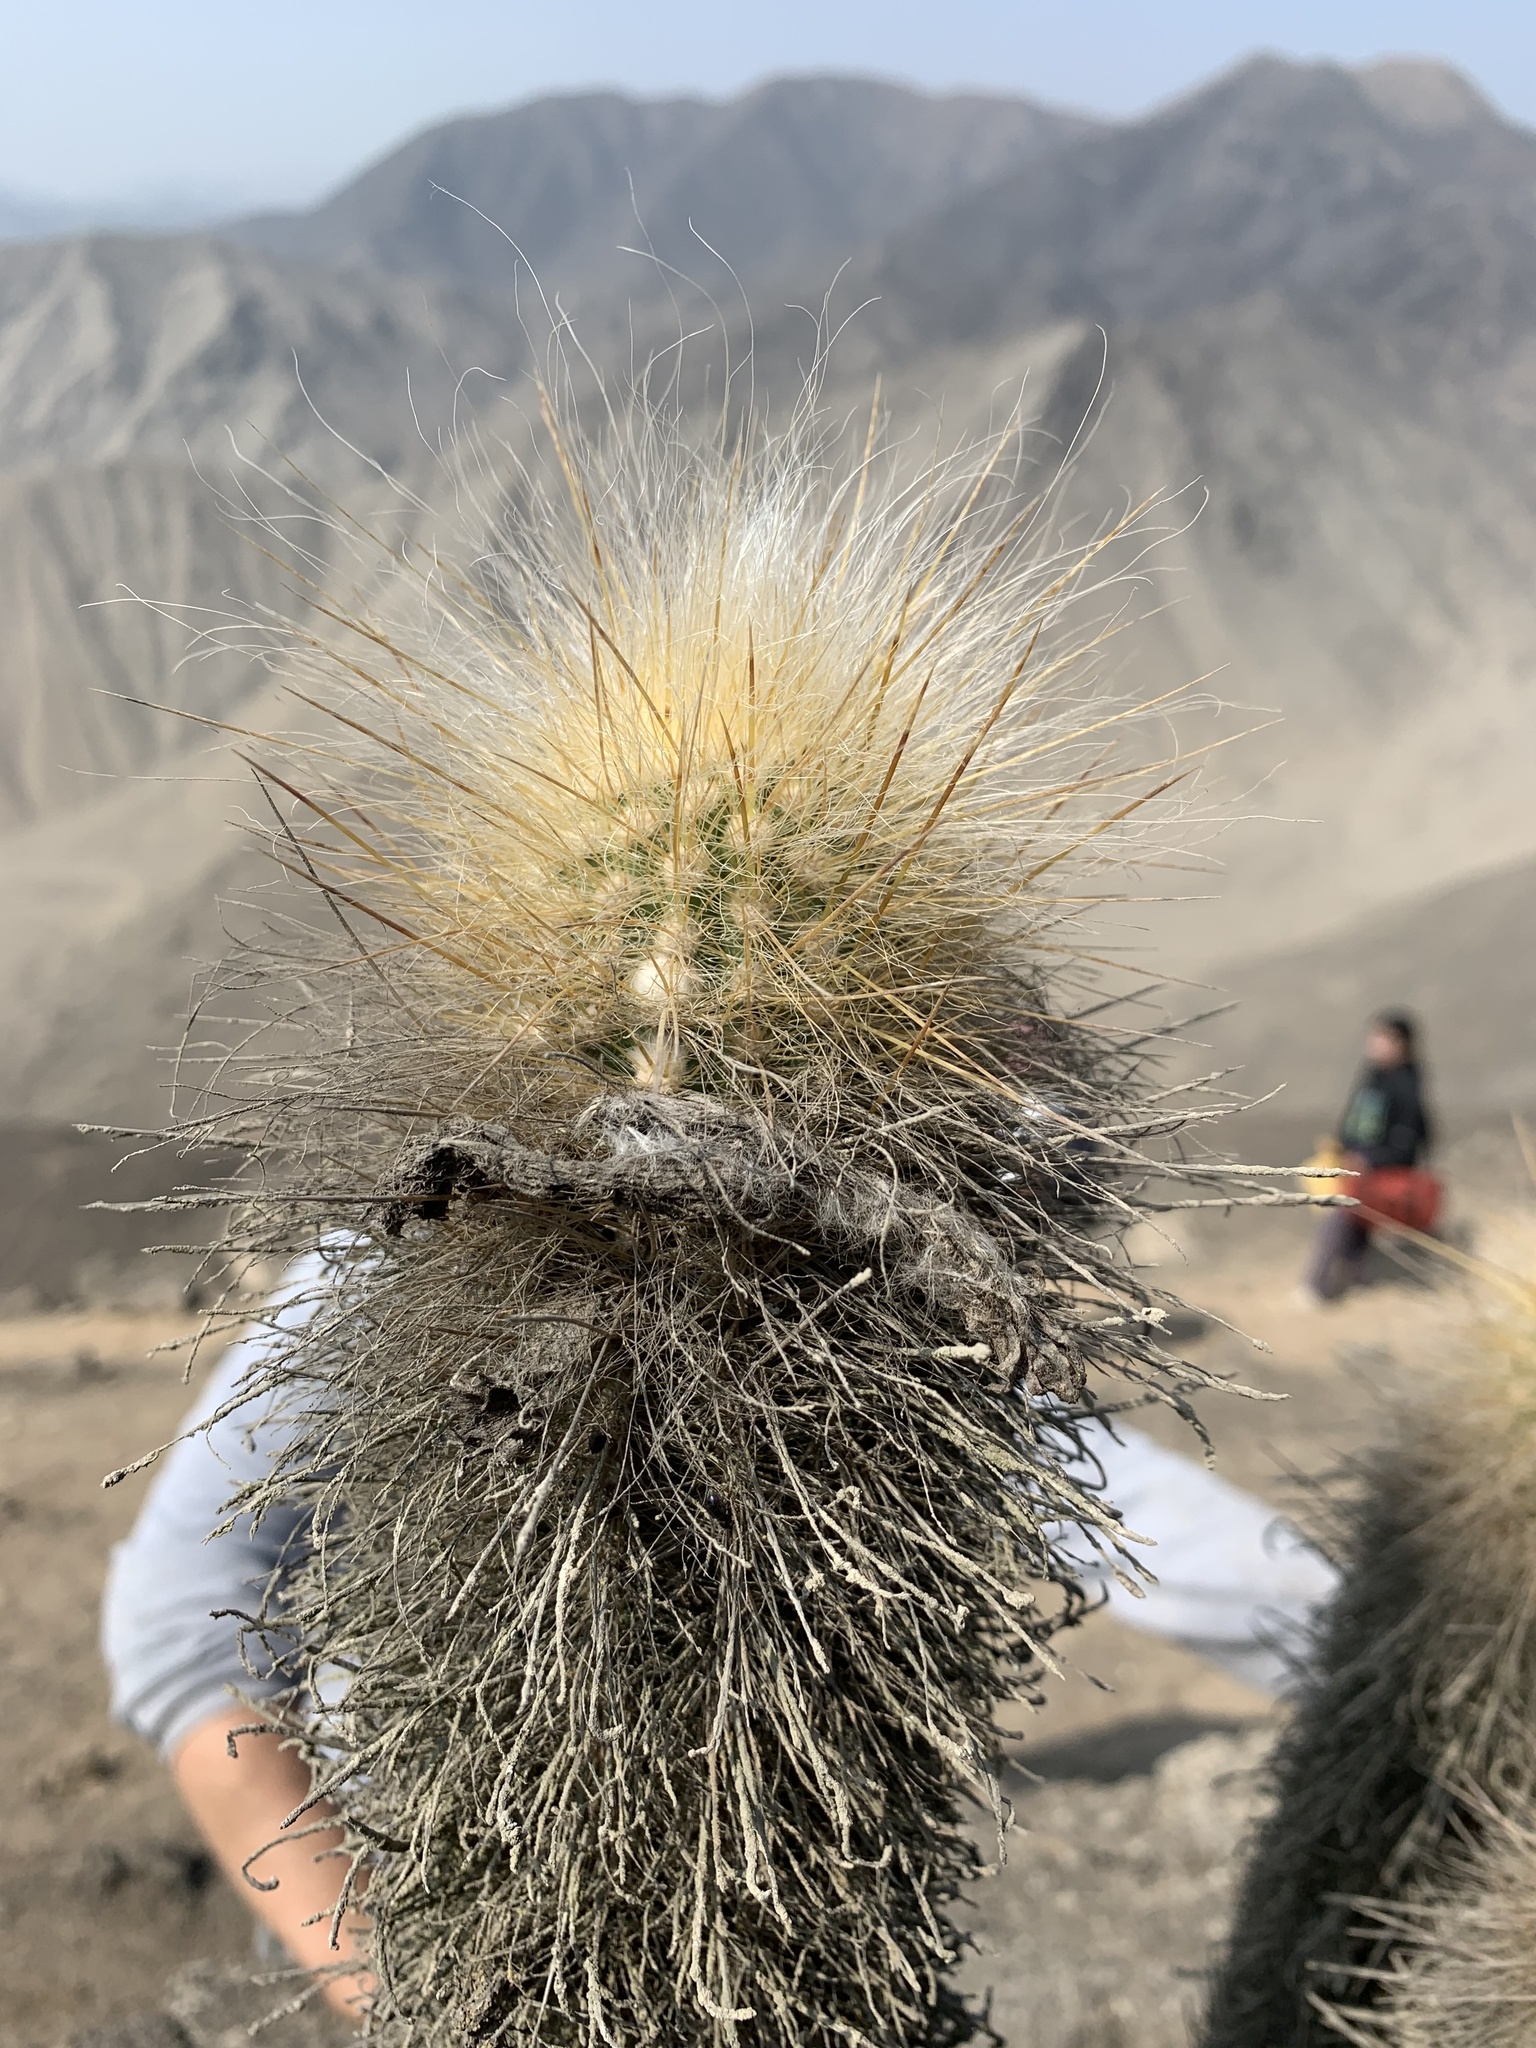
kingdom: Plantae
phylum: Tracheophyta
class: Magnoliopsida
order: Caryophyllales
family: Cactaceae
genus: Haageocereus
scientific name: Haageocereus pseudomelanostele
